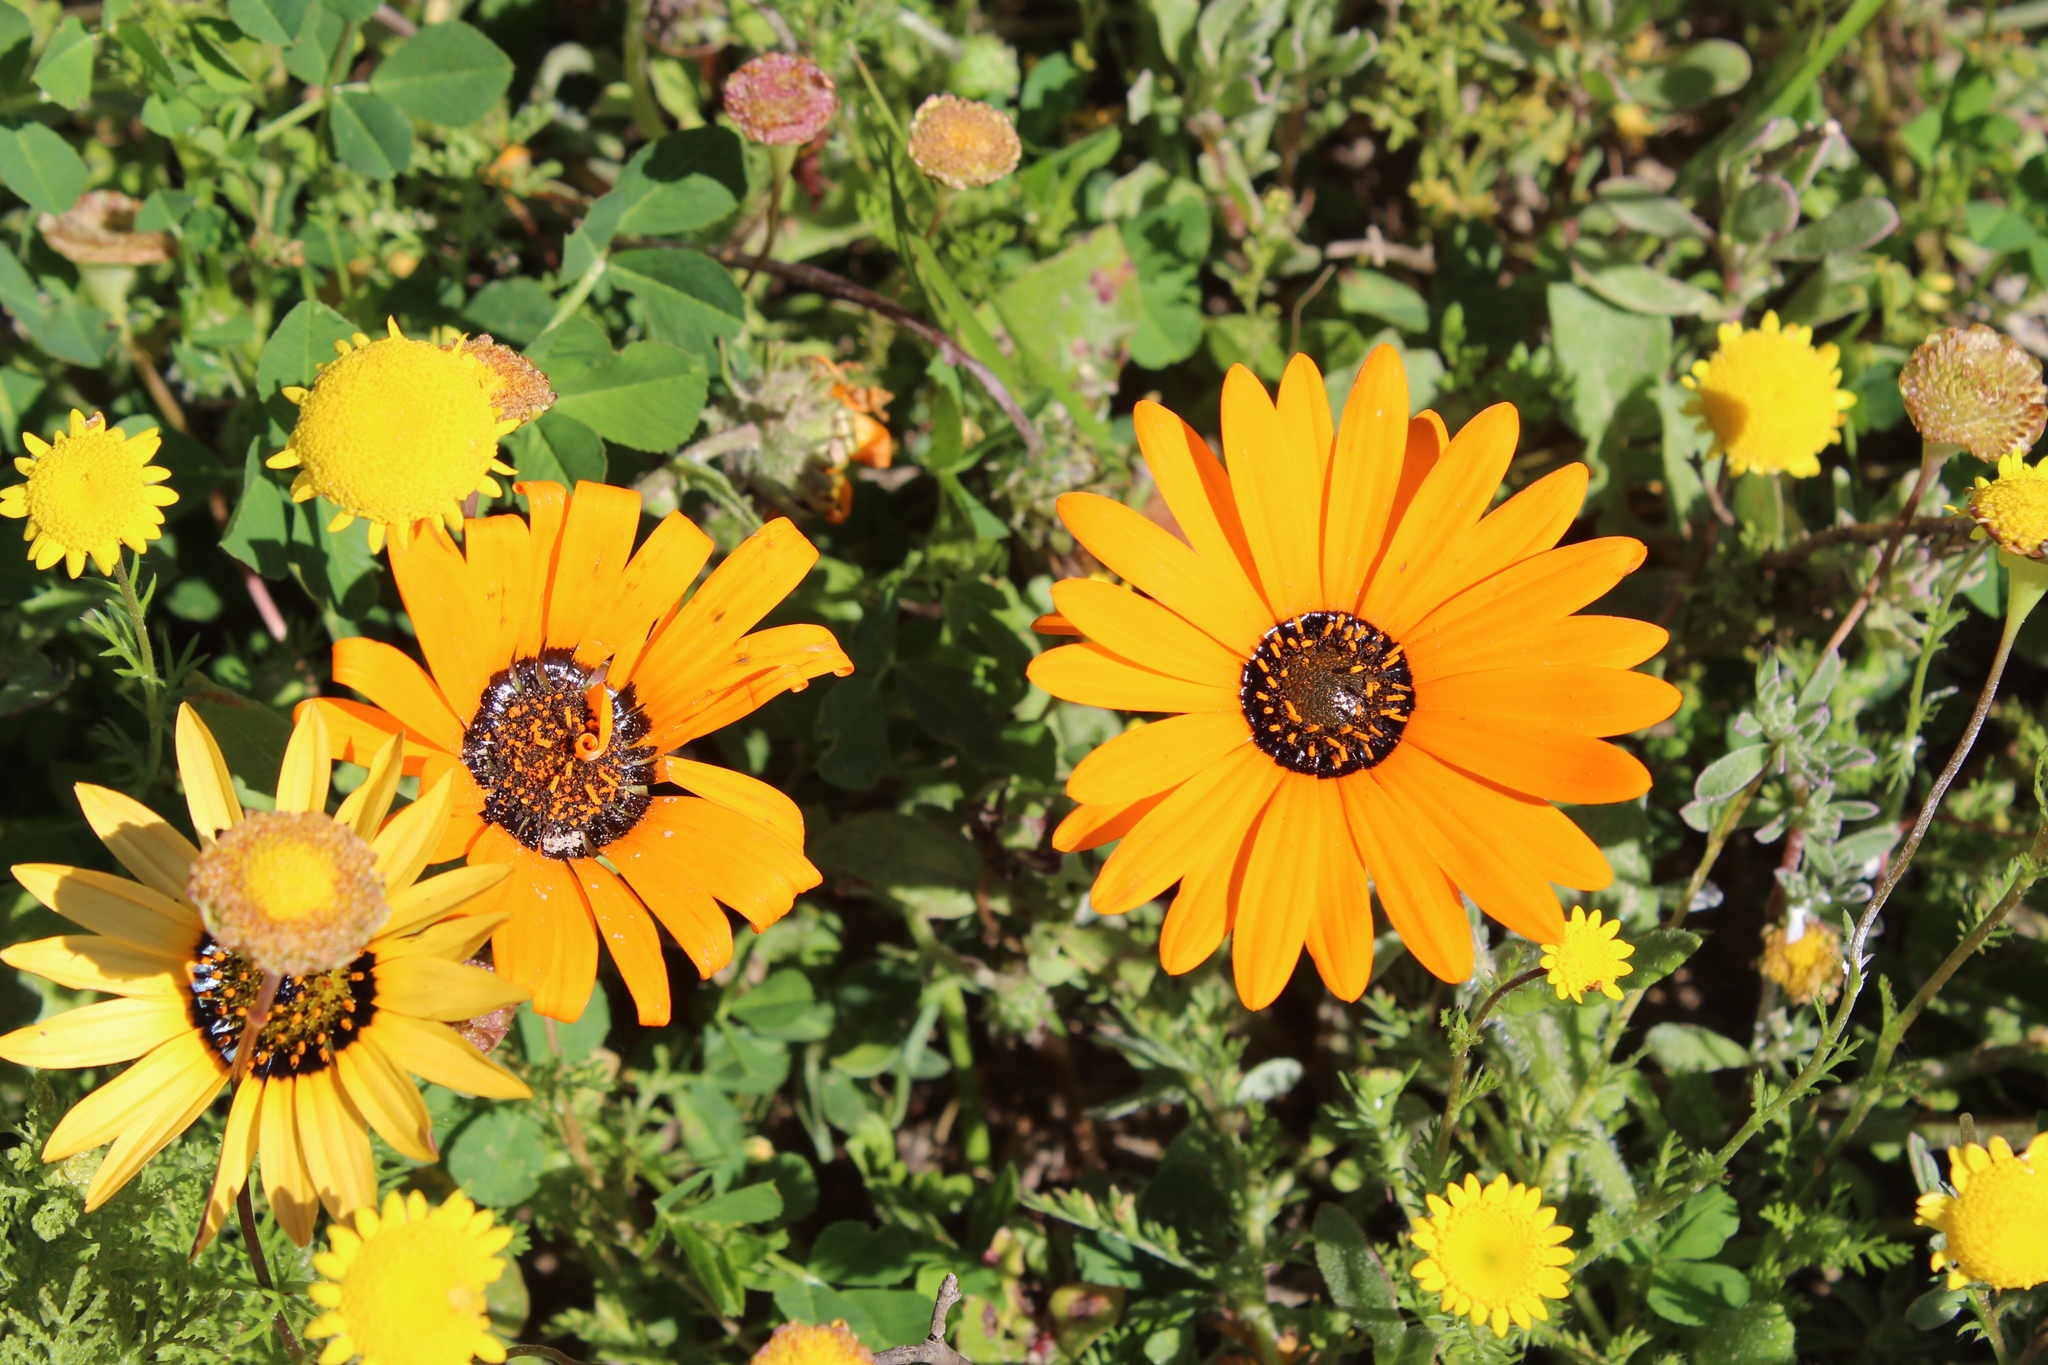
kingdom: Plantae
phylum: Tracheophyta
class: Magnoliopsida
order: Asterales
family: Asteraceae
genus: Arctotis
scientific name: Arctotis hirsuta
